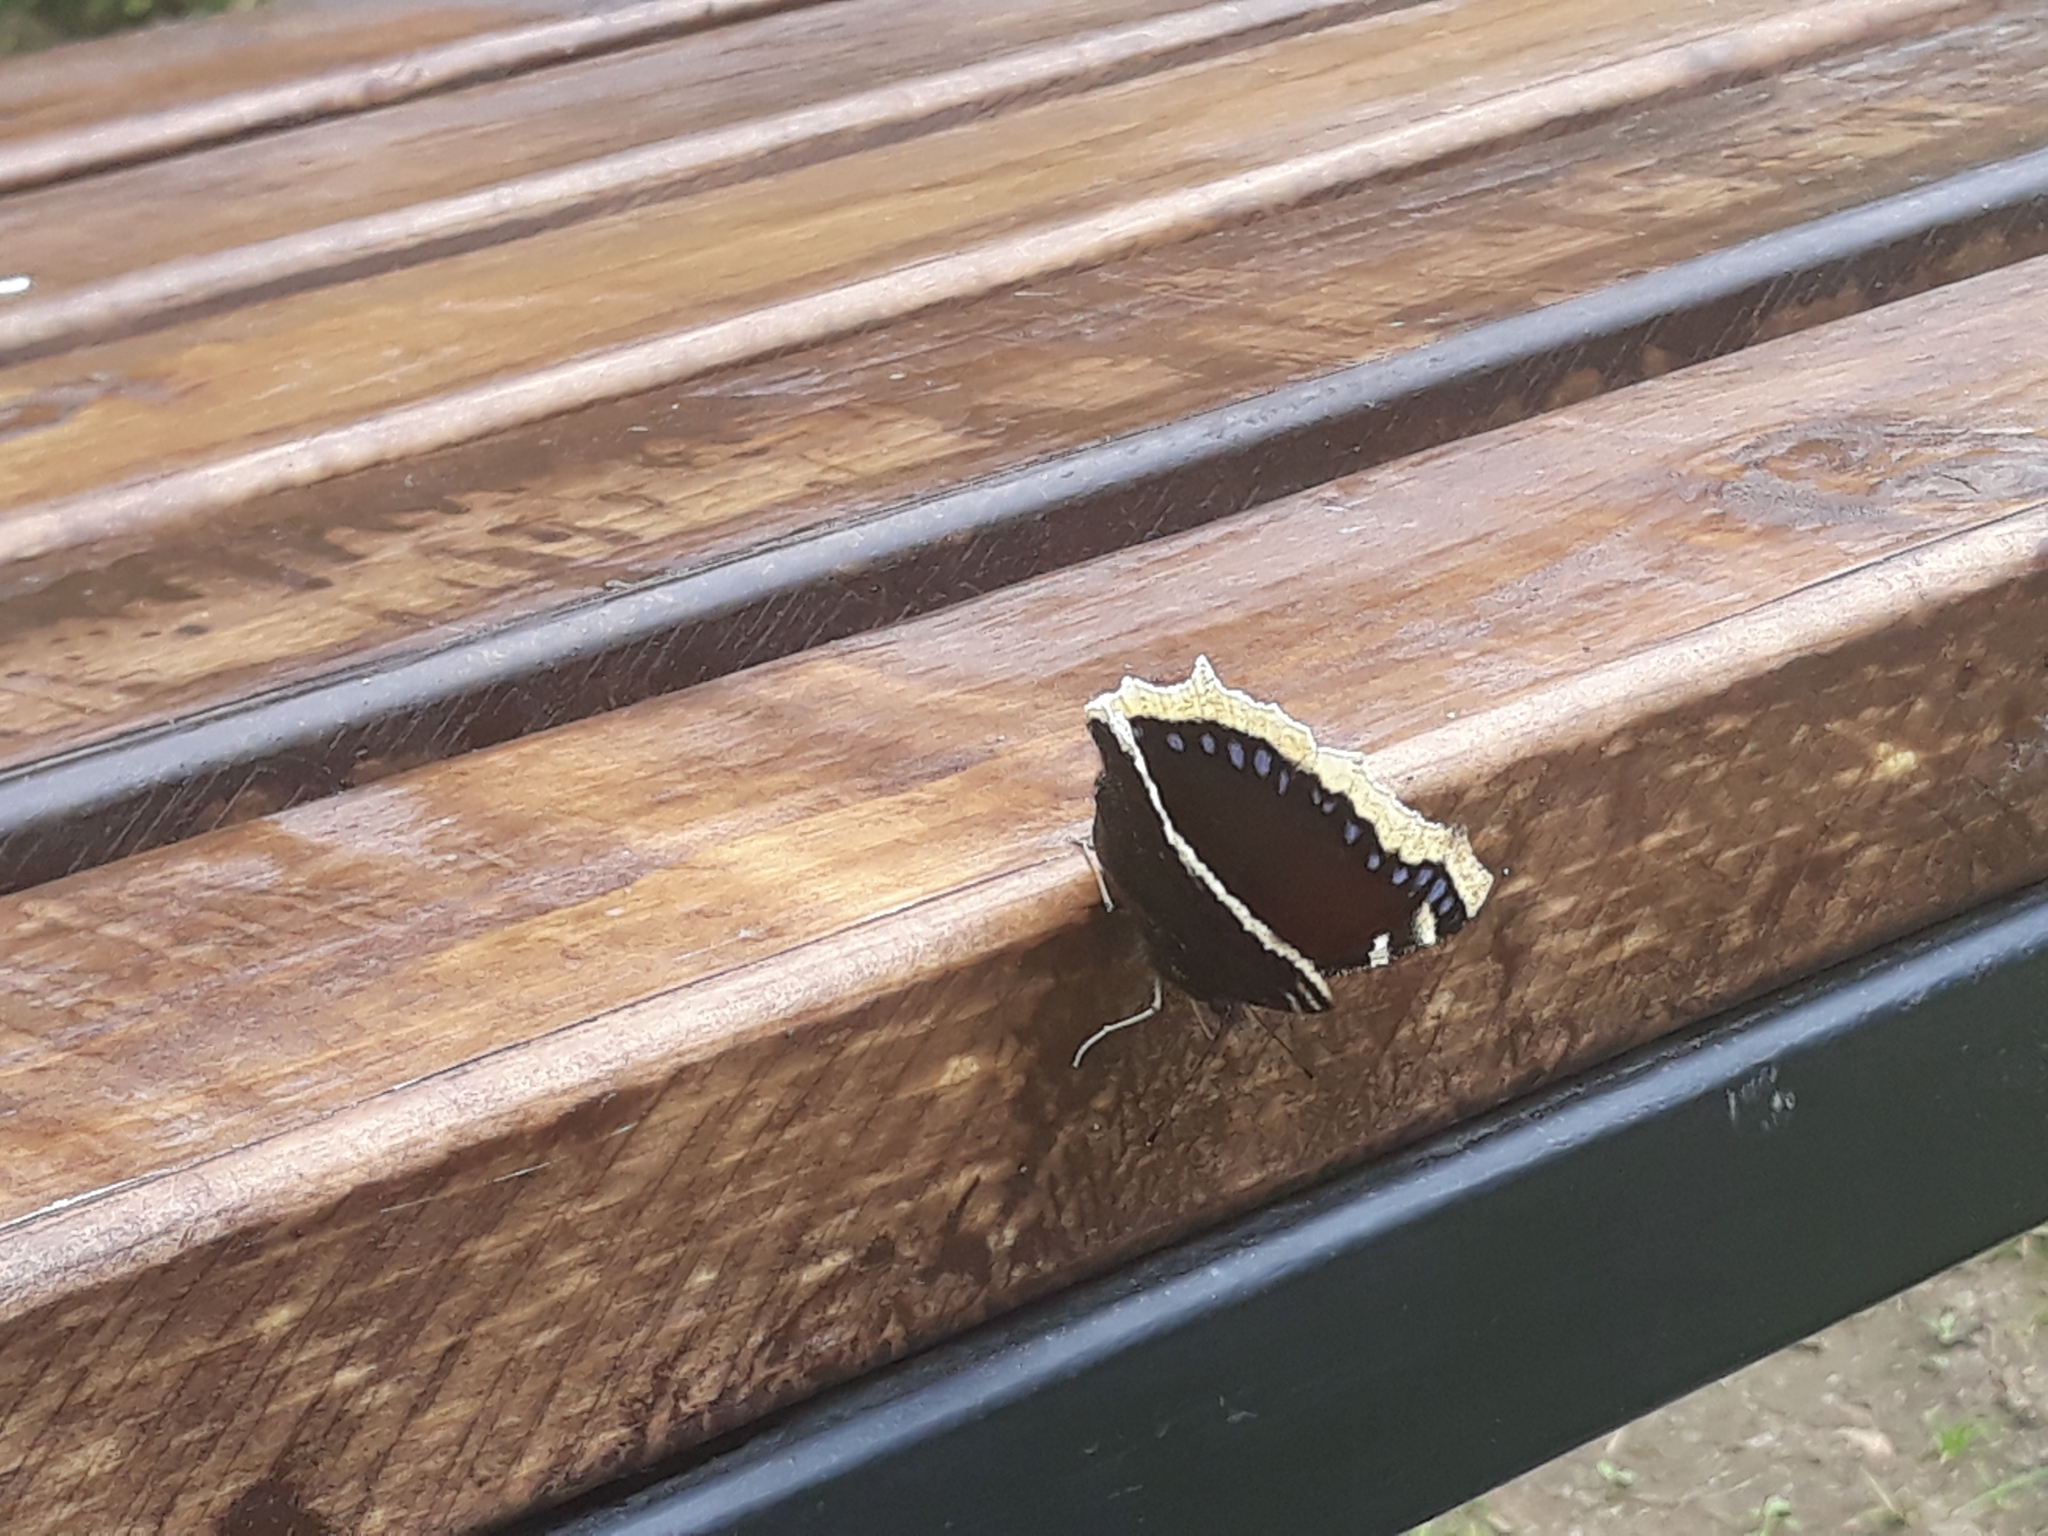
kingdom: Animalia
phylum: Arthropoda
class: Insecta
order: Lepidoptera
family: Nymphalidae
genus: Nymphalis
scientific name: Nymphalis antiopa
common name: Camberwell beauty
